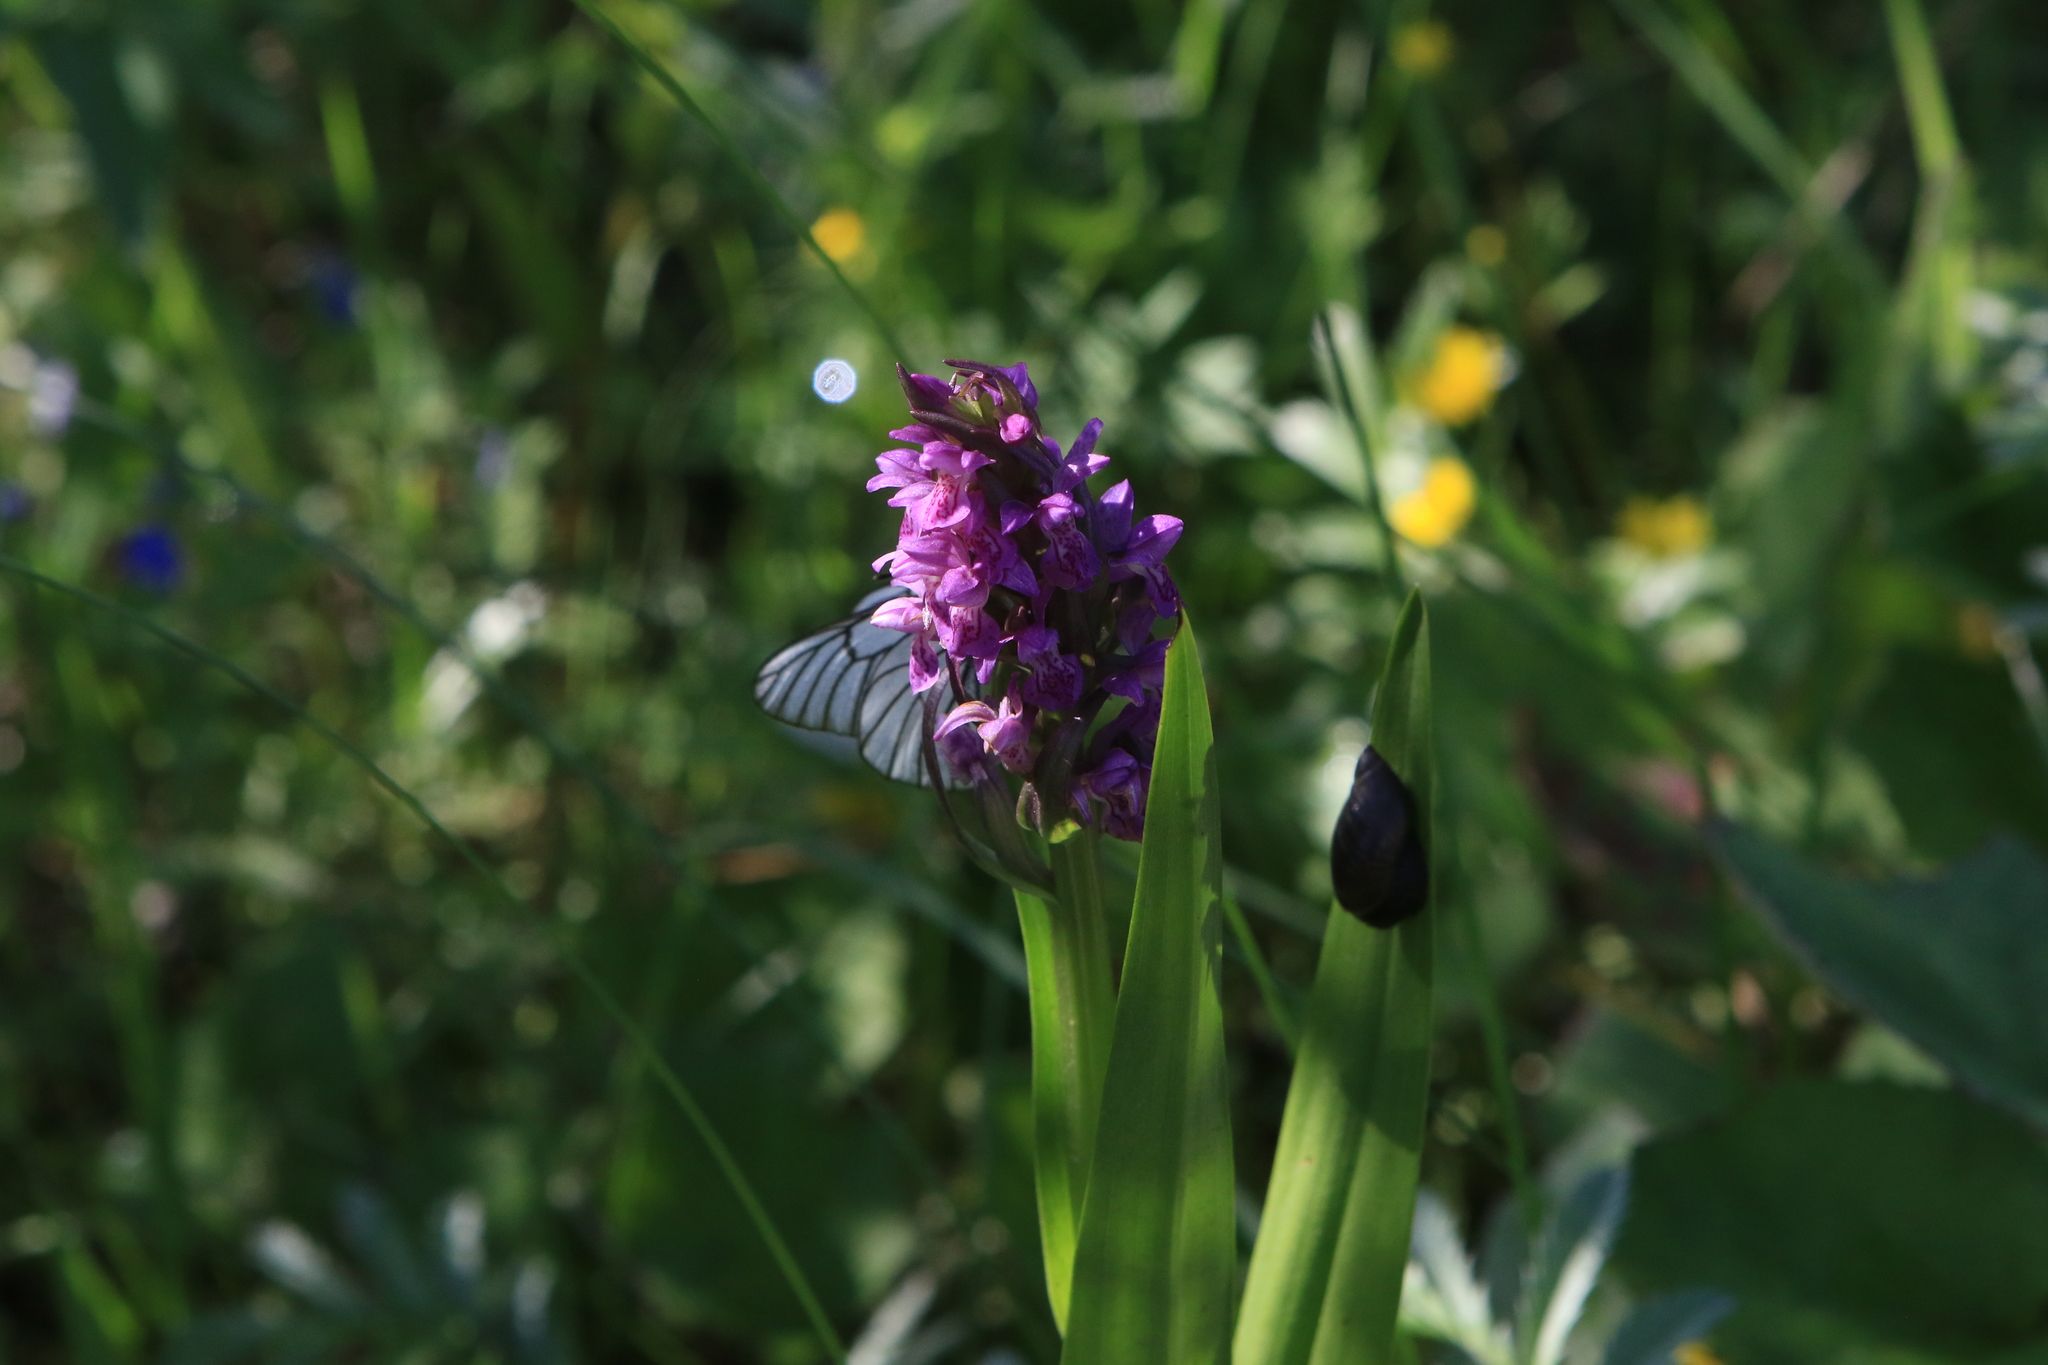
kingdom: Plantae
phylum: Tracheophyta
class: Liliopsida
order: Asparagales
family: Orchidaceae
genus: Dactylorhiza
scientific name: Dactylorhiza incarnata
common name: Early marsh-orchid
